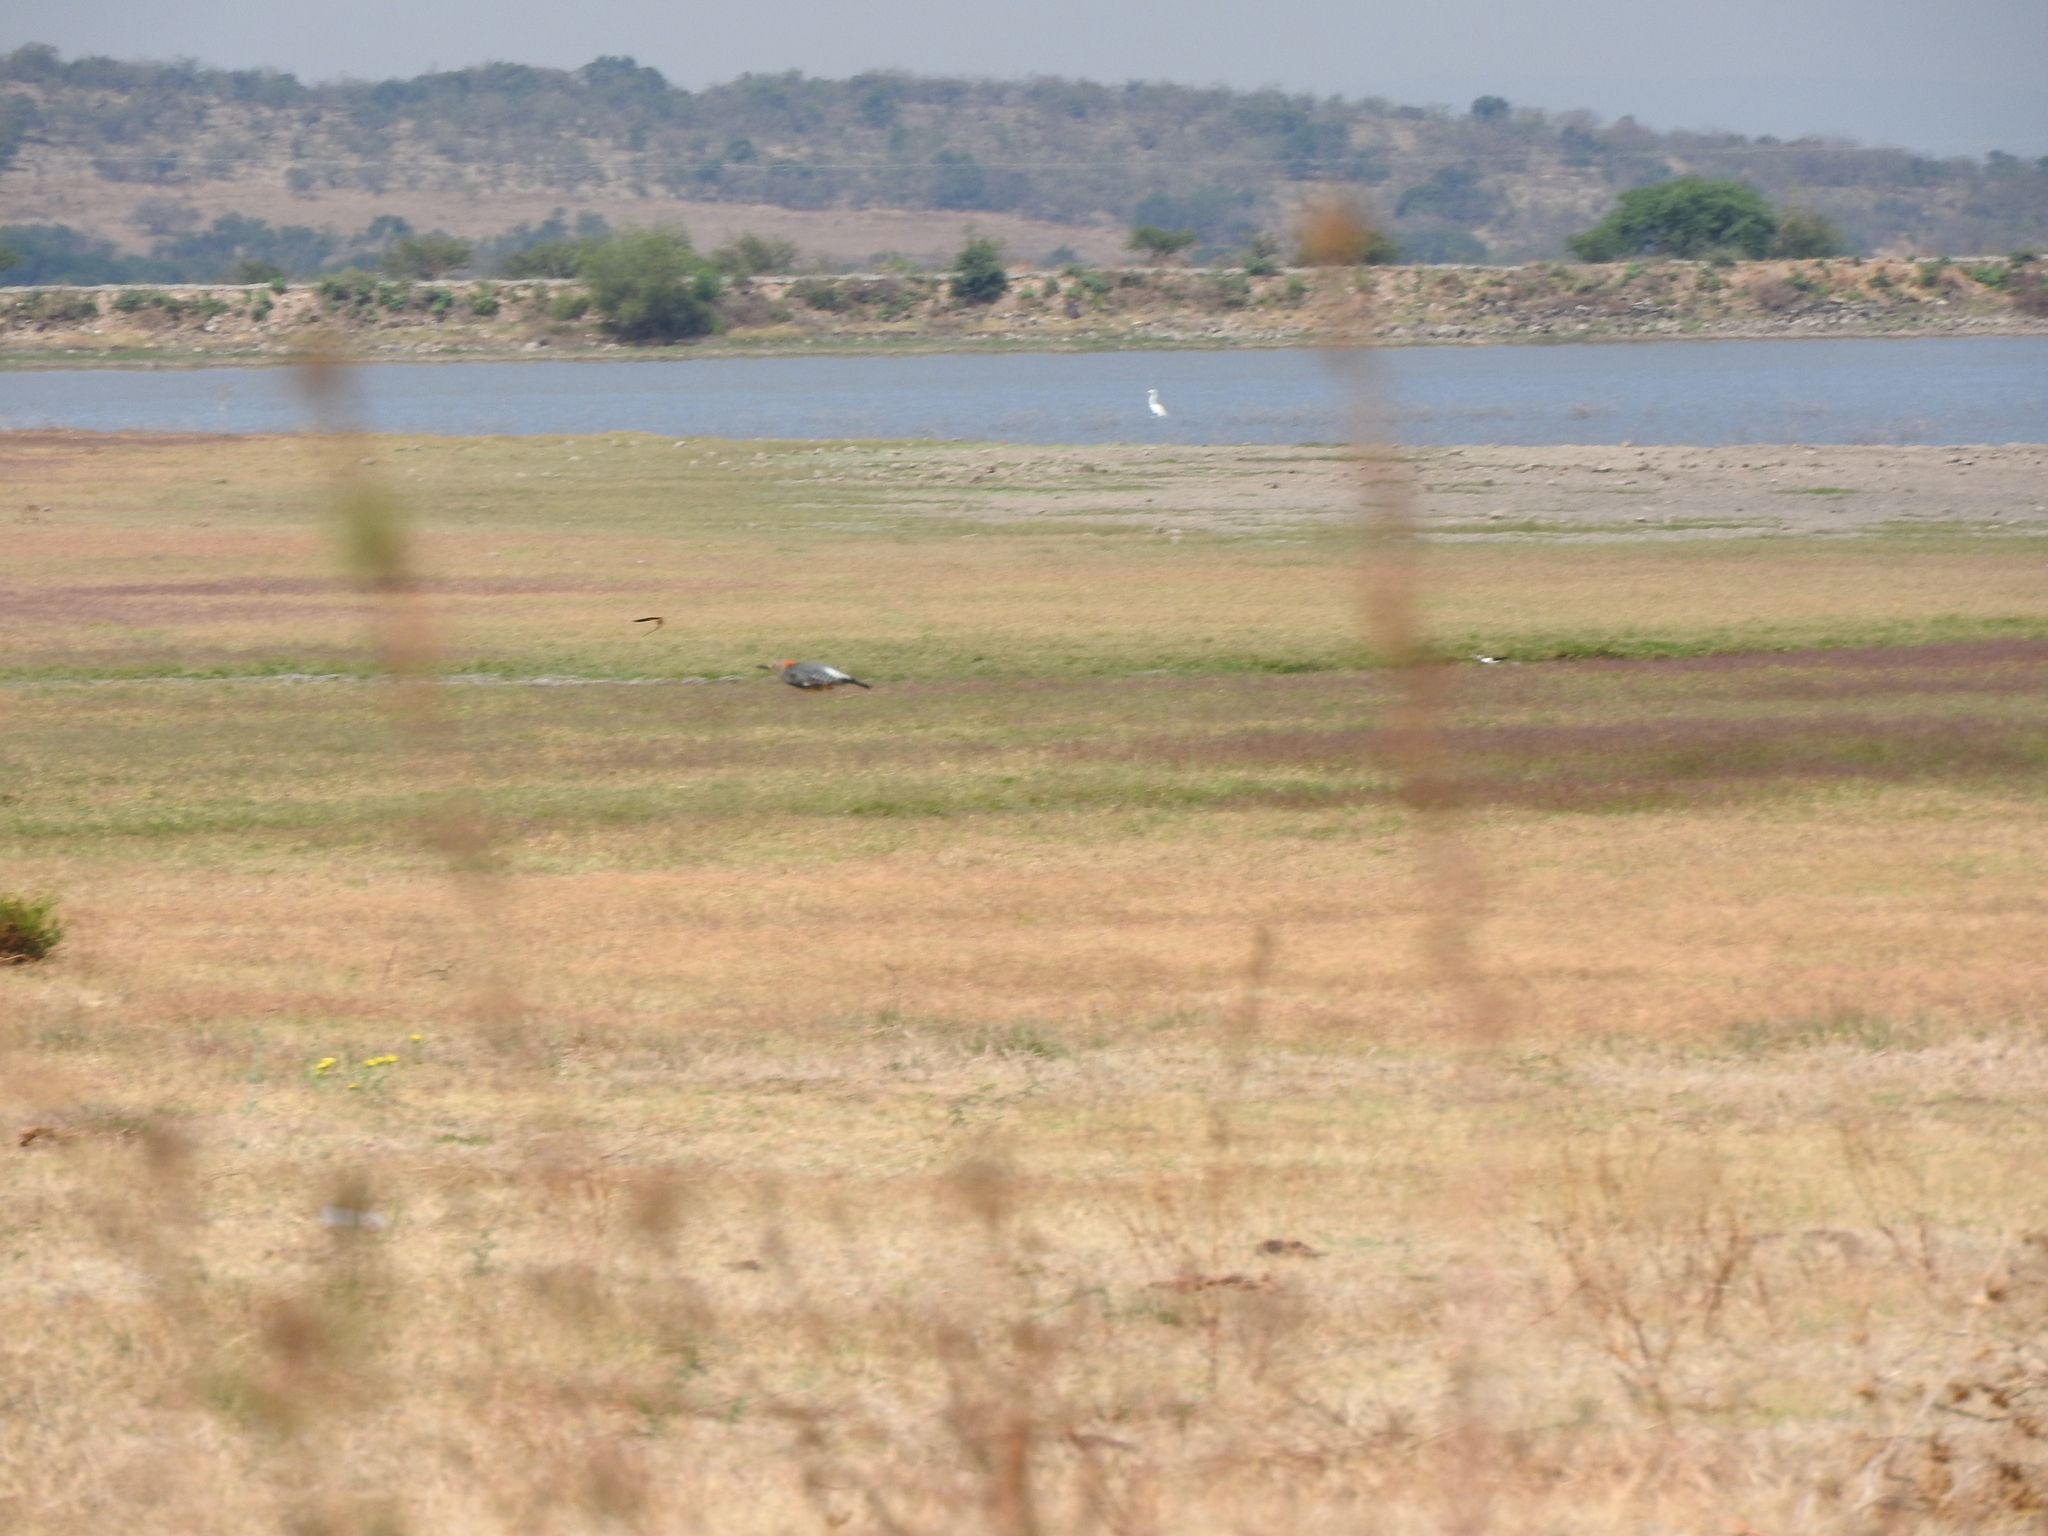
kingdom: Animalia
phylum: Chordata
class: Aves
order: Piciformes
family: Picidae
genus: Melanerpes
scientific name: Melanerpes aurifrons
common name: Golden-fronted woodpecker
